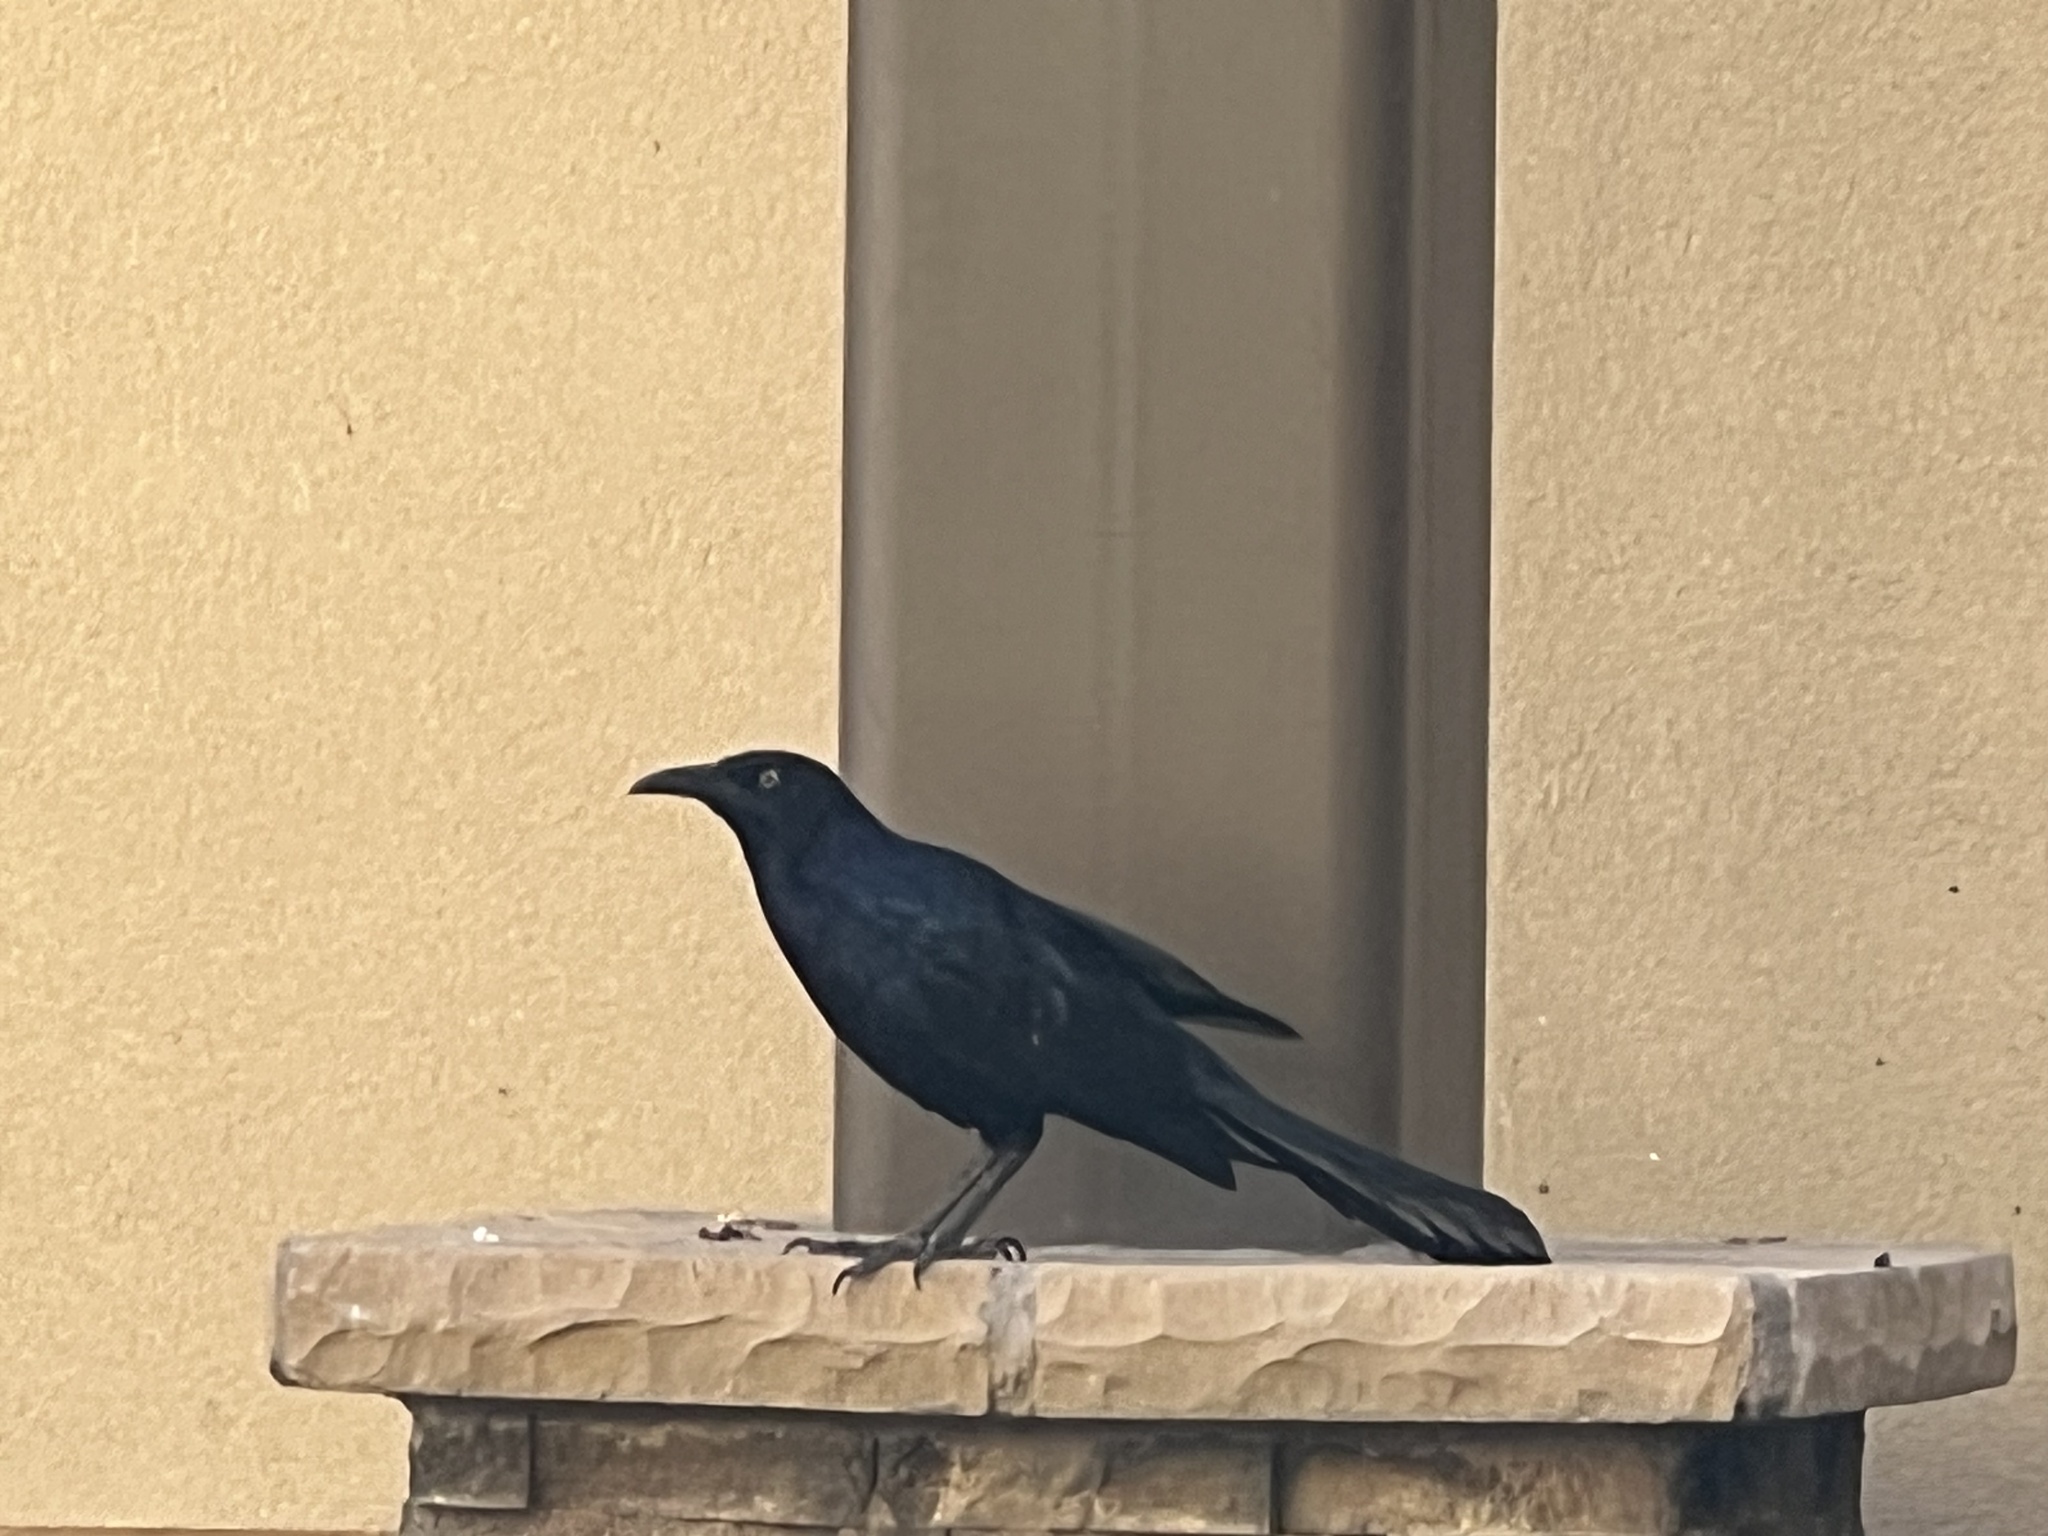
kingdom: Animalia
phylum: Chordata
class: Aves
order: Passeriformes
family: Icteridae
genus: Quiscalus
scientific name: Quiscalus mexicanus
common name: Great-tailed grackle
